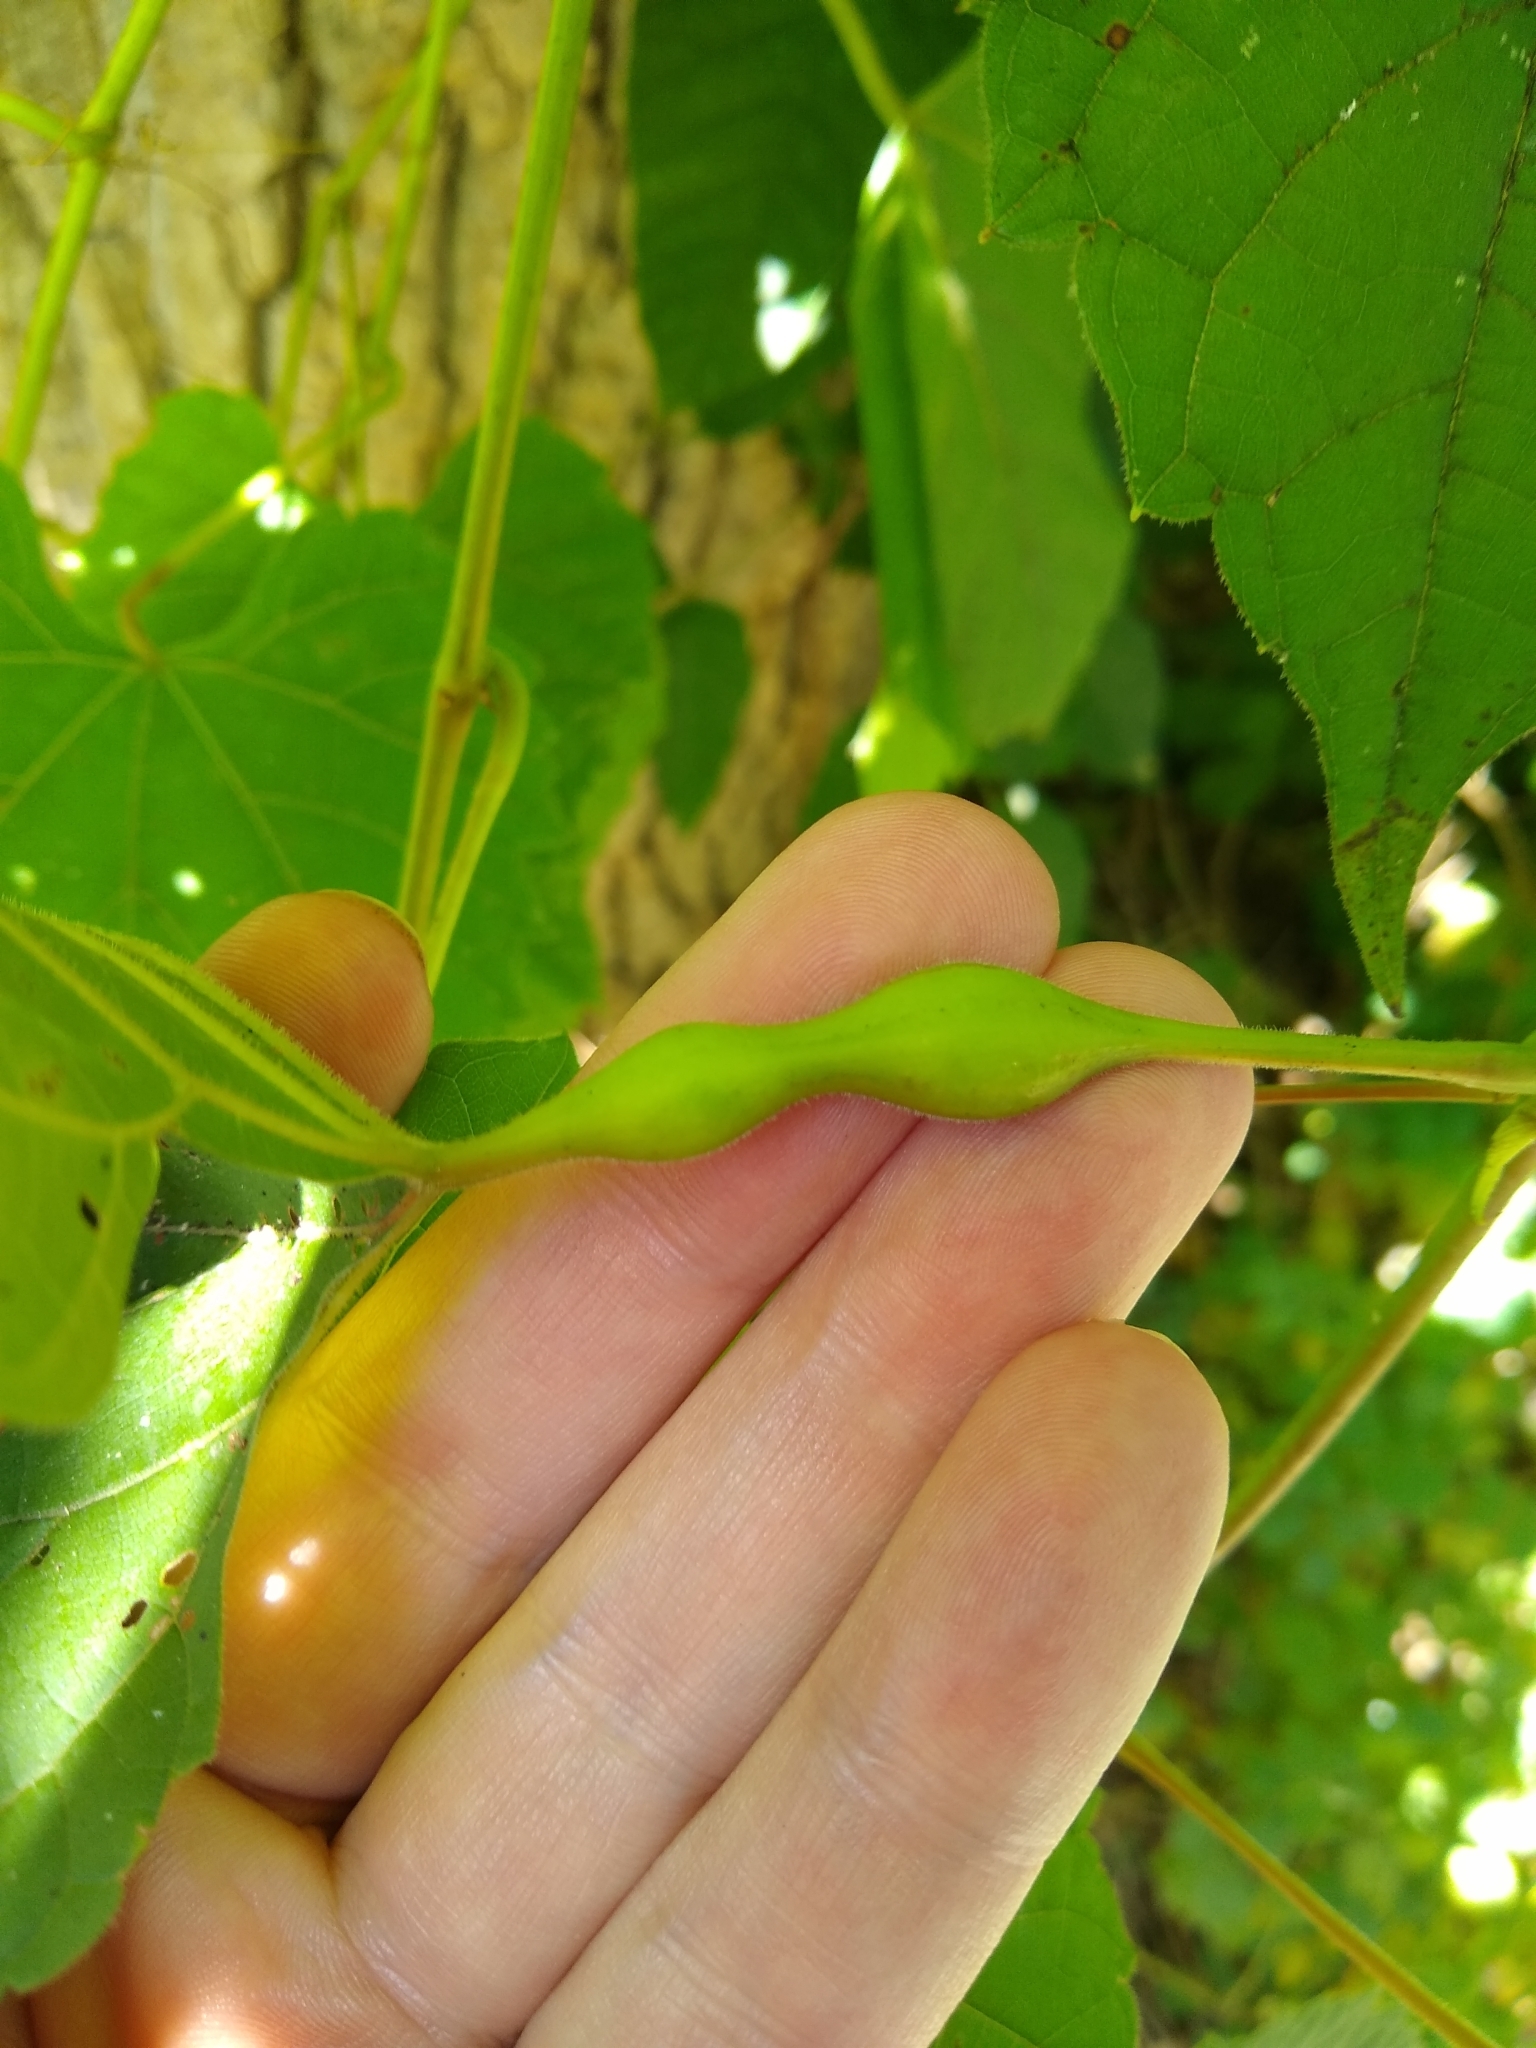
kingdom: Animalia
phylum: Arthropoda
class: Insecta
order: Diptera
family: Cecidomyiidae
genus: Neolasioptera
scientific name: Neolasioptera vitinea
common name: Grape leaf petiole gall
